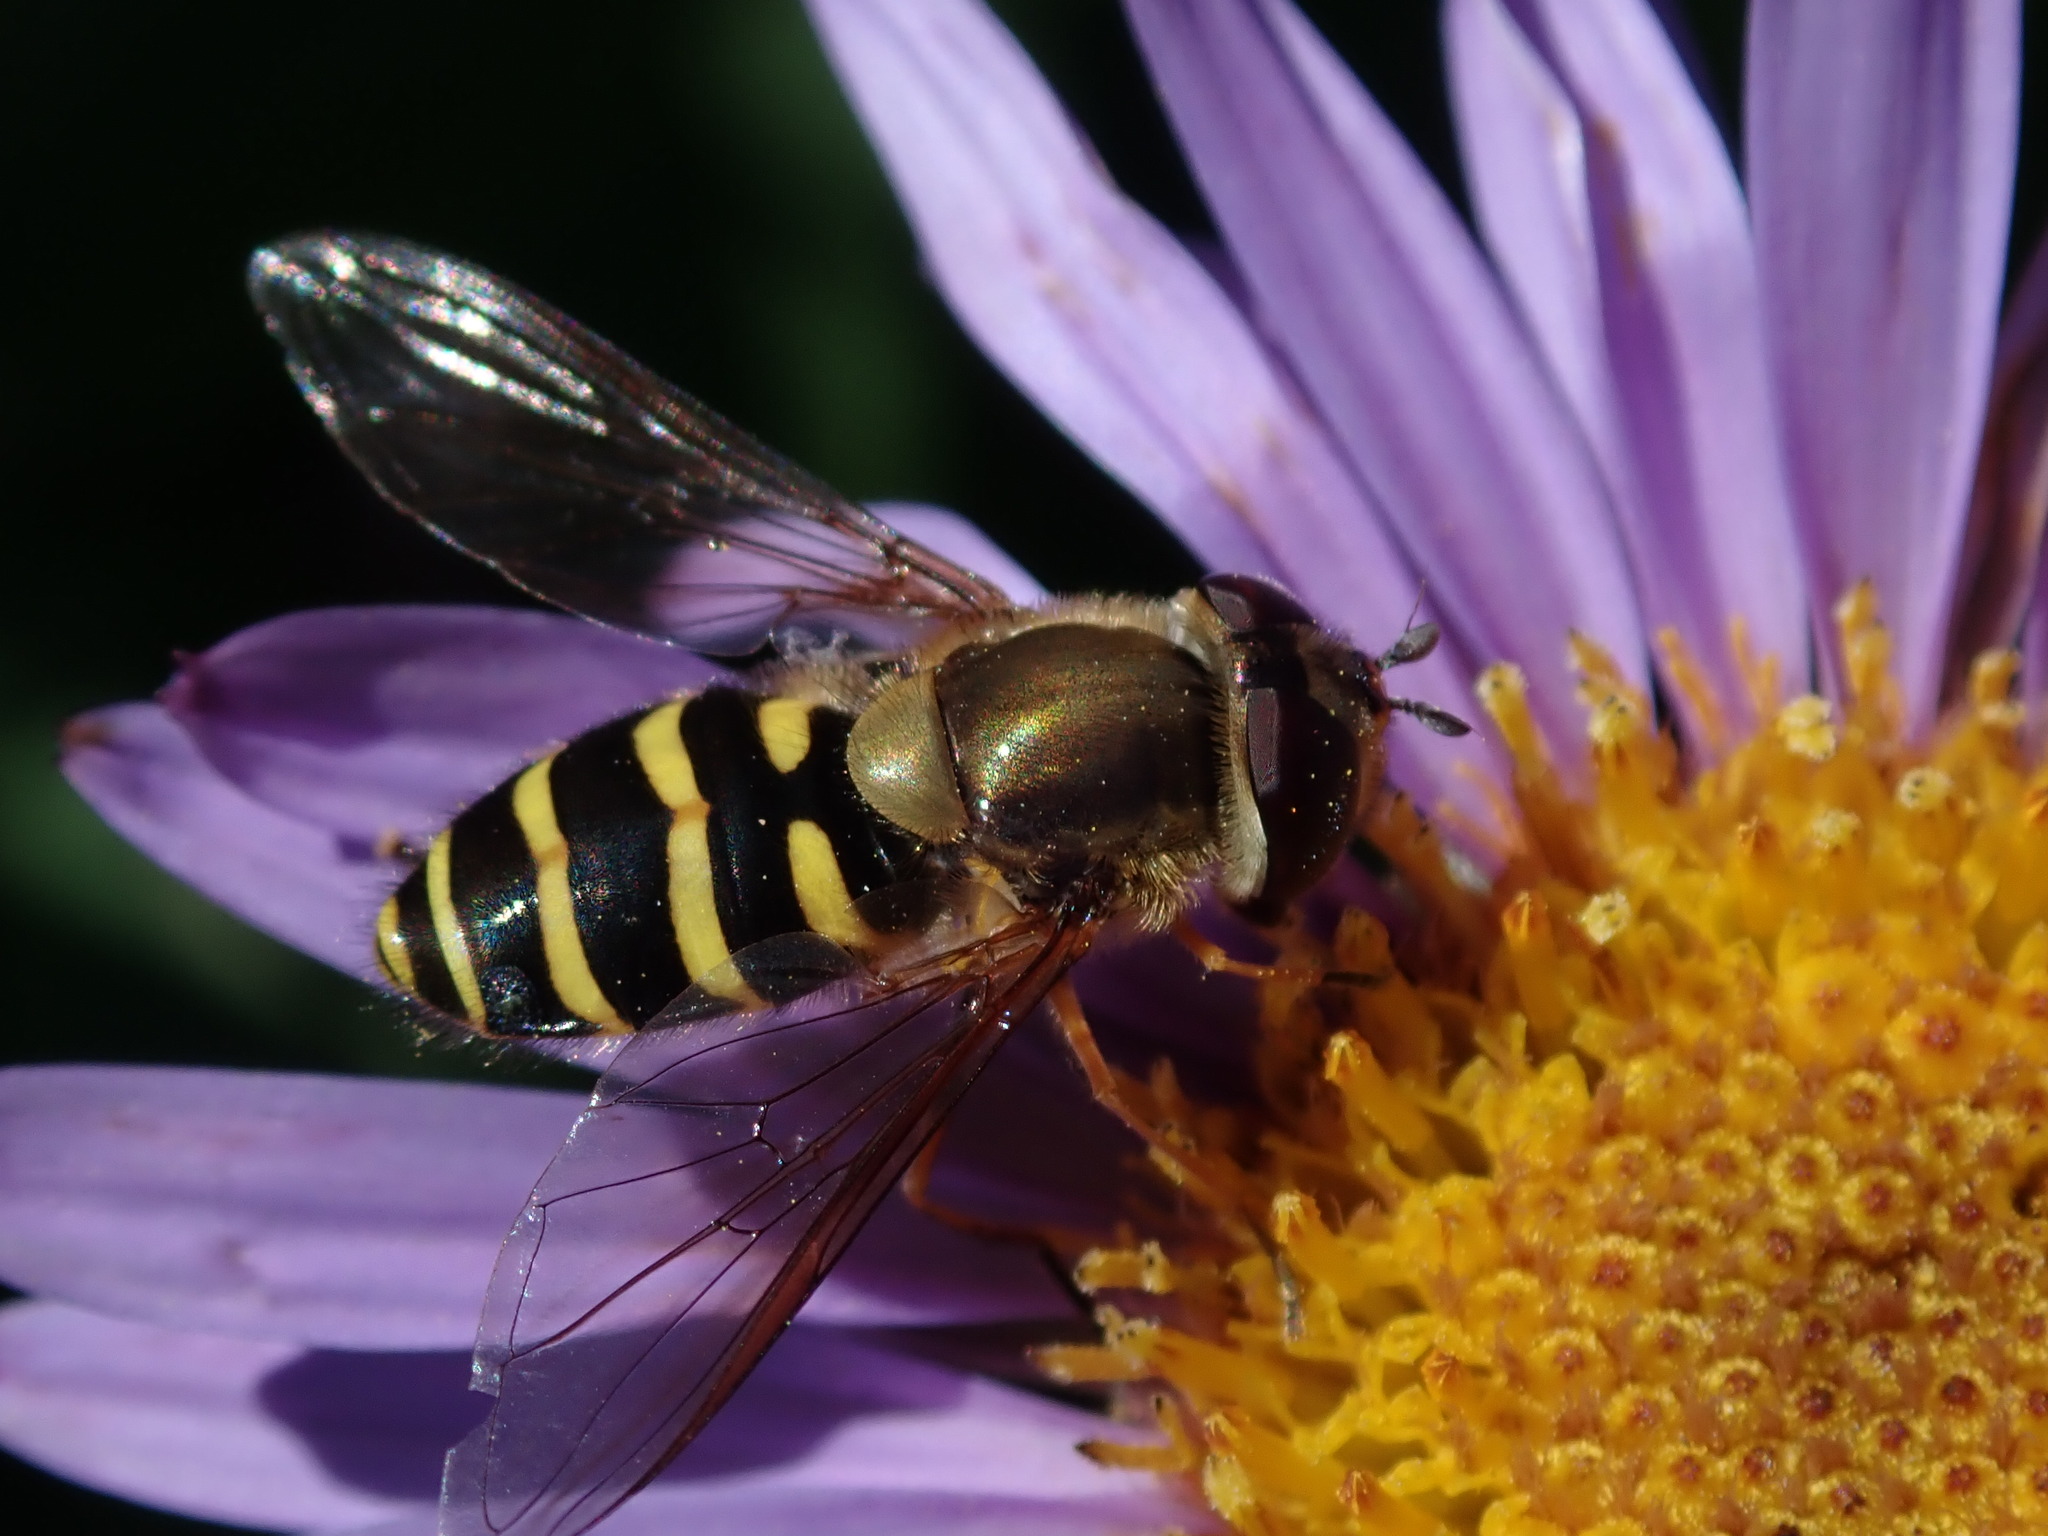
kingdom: Animalia
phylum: Arthropoda
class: Insecta
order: Diptera
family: Syrphidae
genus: Syrphus
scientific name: Syrphus torvus
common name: Hairy-eyed flower fly
